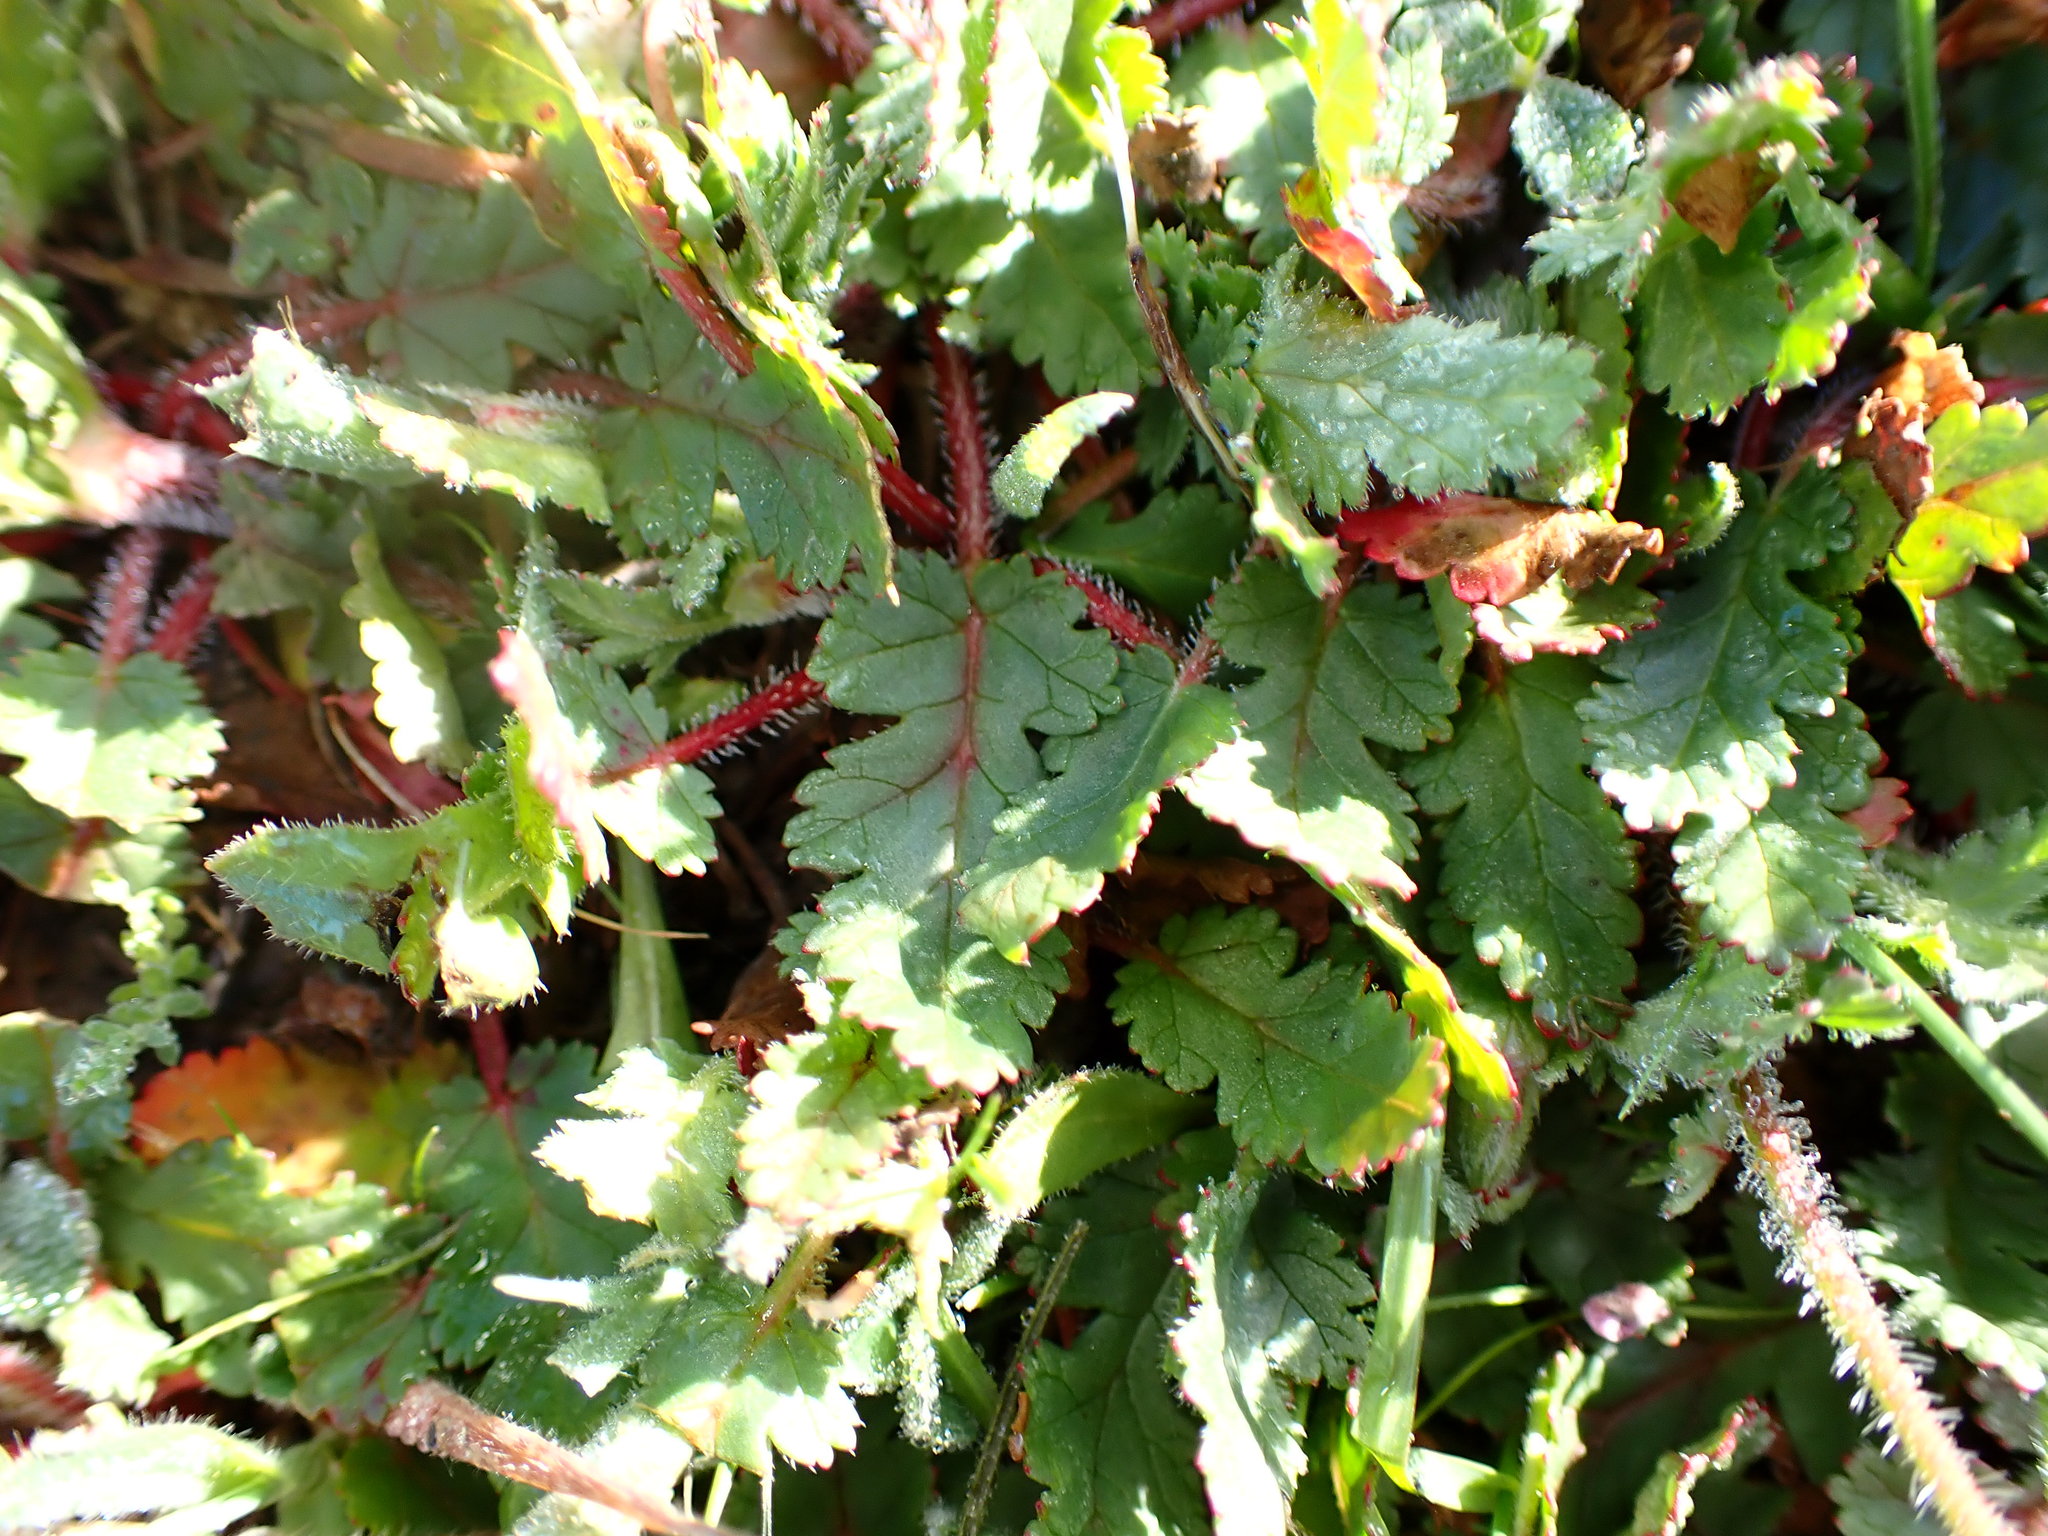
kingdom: Plantae
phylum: Tracheophyta
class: Magnoliopsida
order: Geraniales
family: Geraniaceae
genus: Erodium
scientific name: Erodium botrys
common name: Mediterranean stork's-bill
